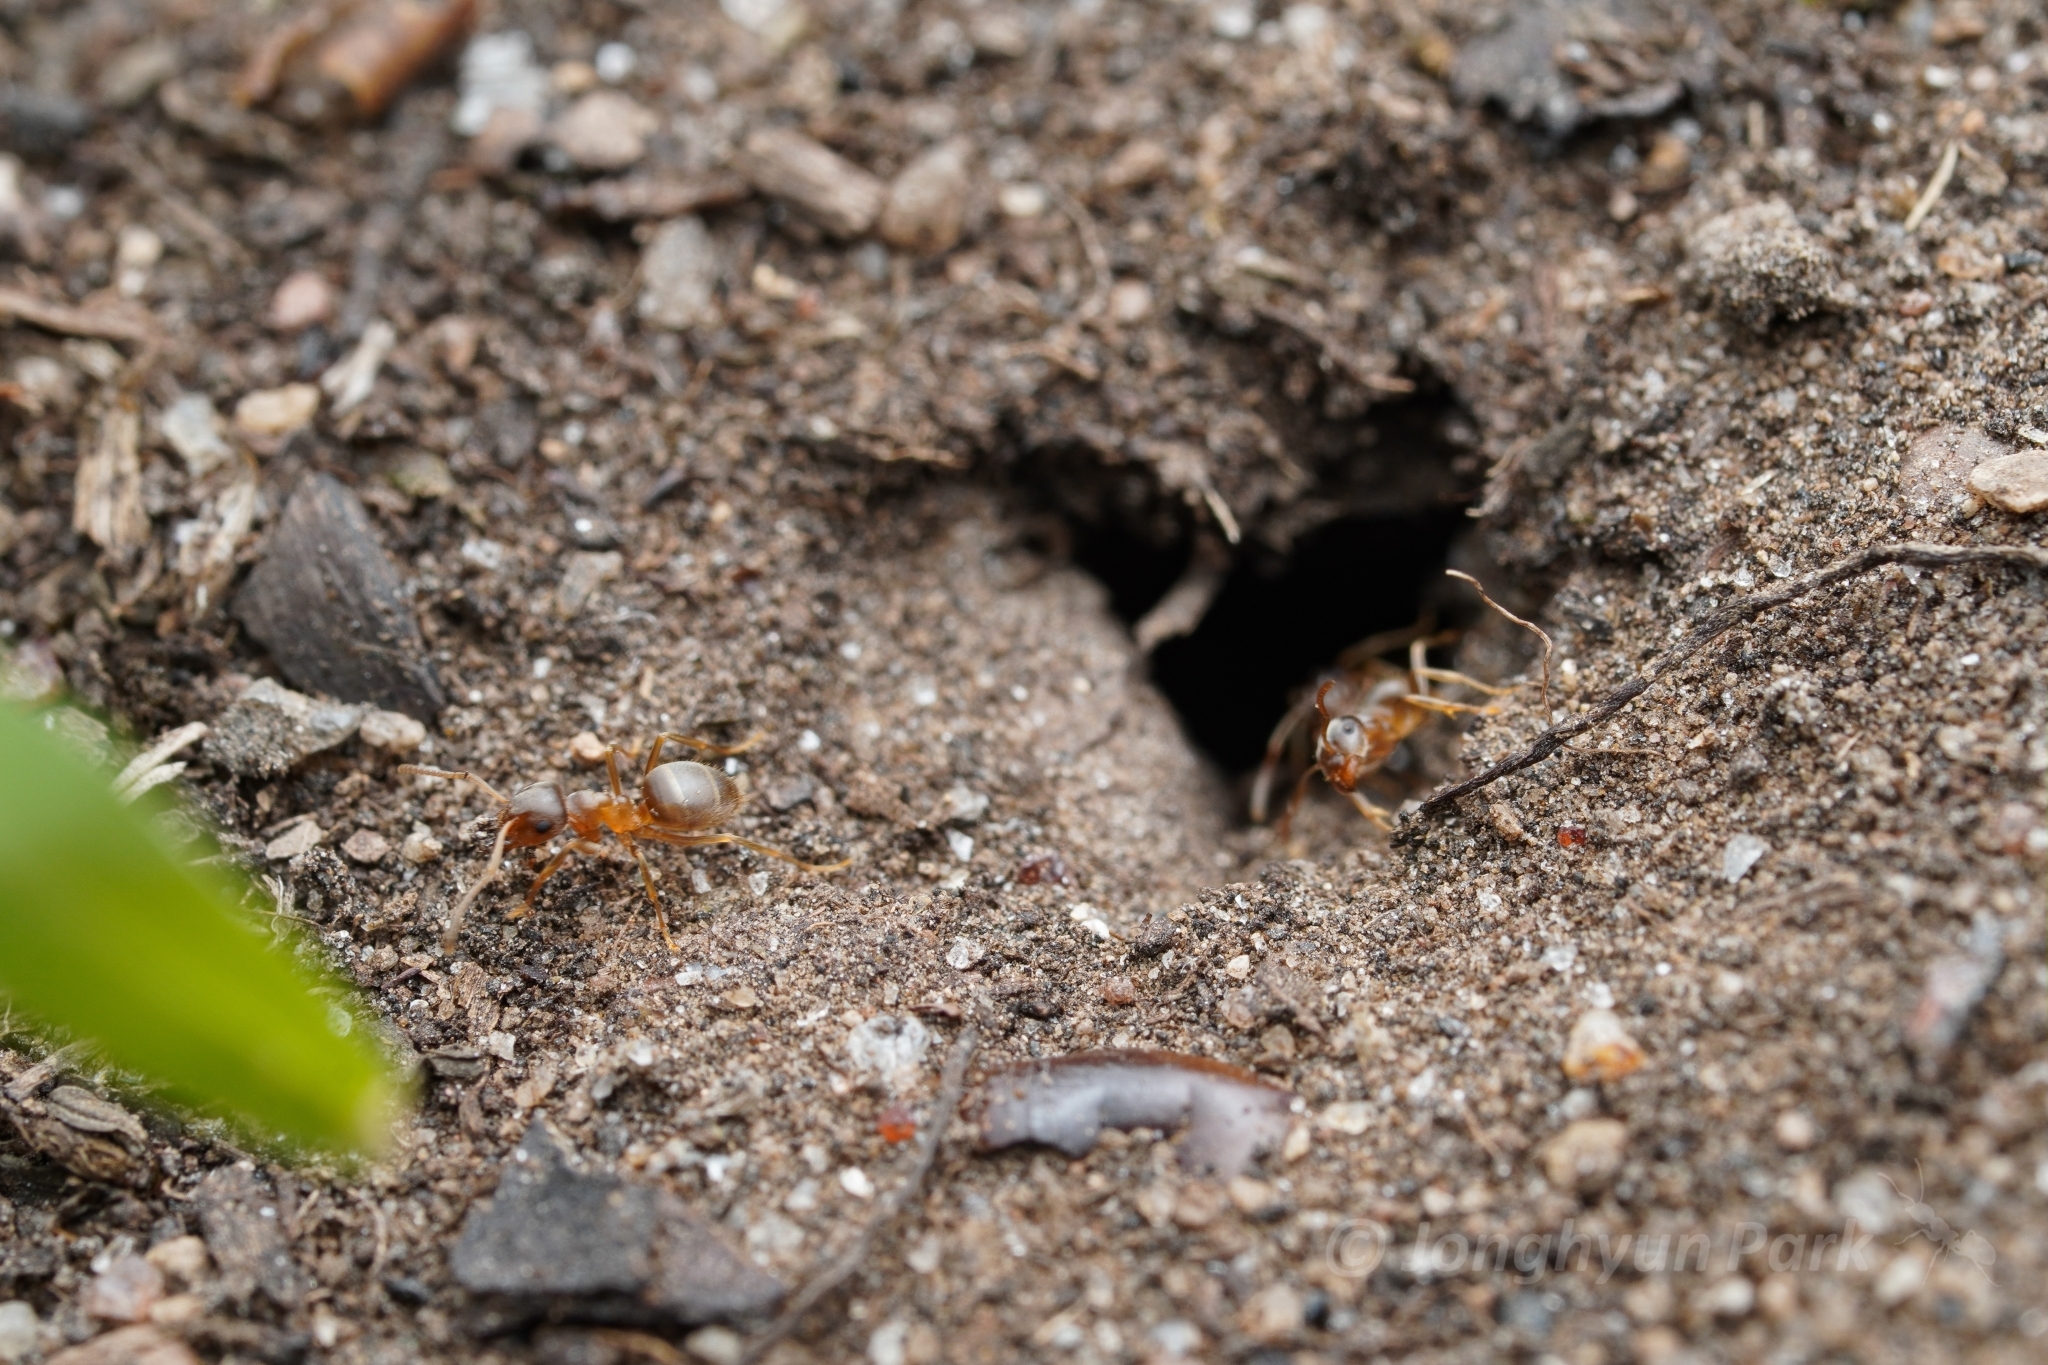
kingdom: Animalia
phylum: Arthropoda
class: Insecta
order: Hymenoptera
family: Formicidae
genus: Lasius
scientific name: Lasius neoniger
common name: Turfgrass ant
